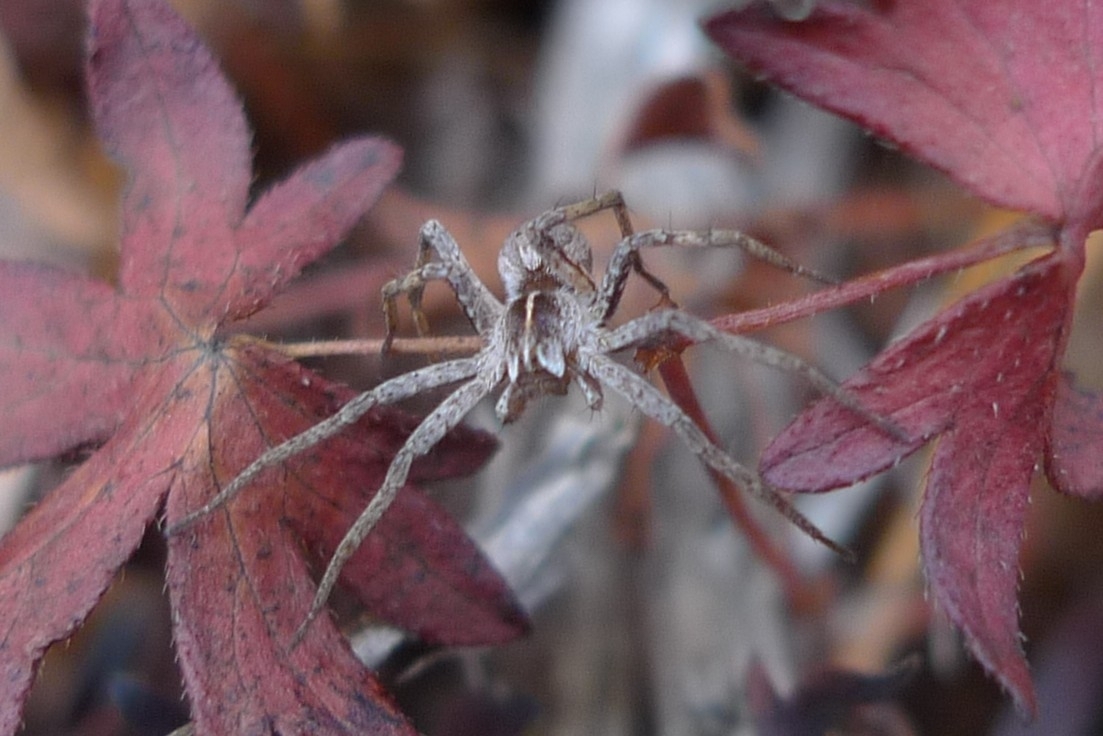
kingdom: Animalia
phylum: Arthropoda
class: Arachnida
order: Araneae
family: Pisauridae
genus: Pisaura
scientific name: Pisaura mirabilis
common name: Tent spider
